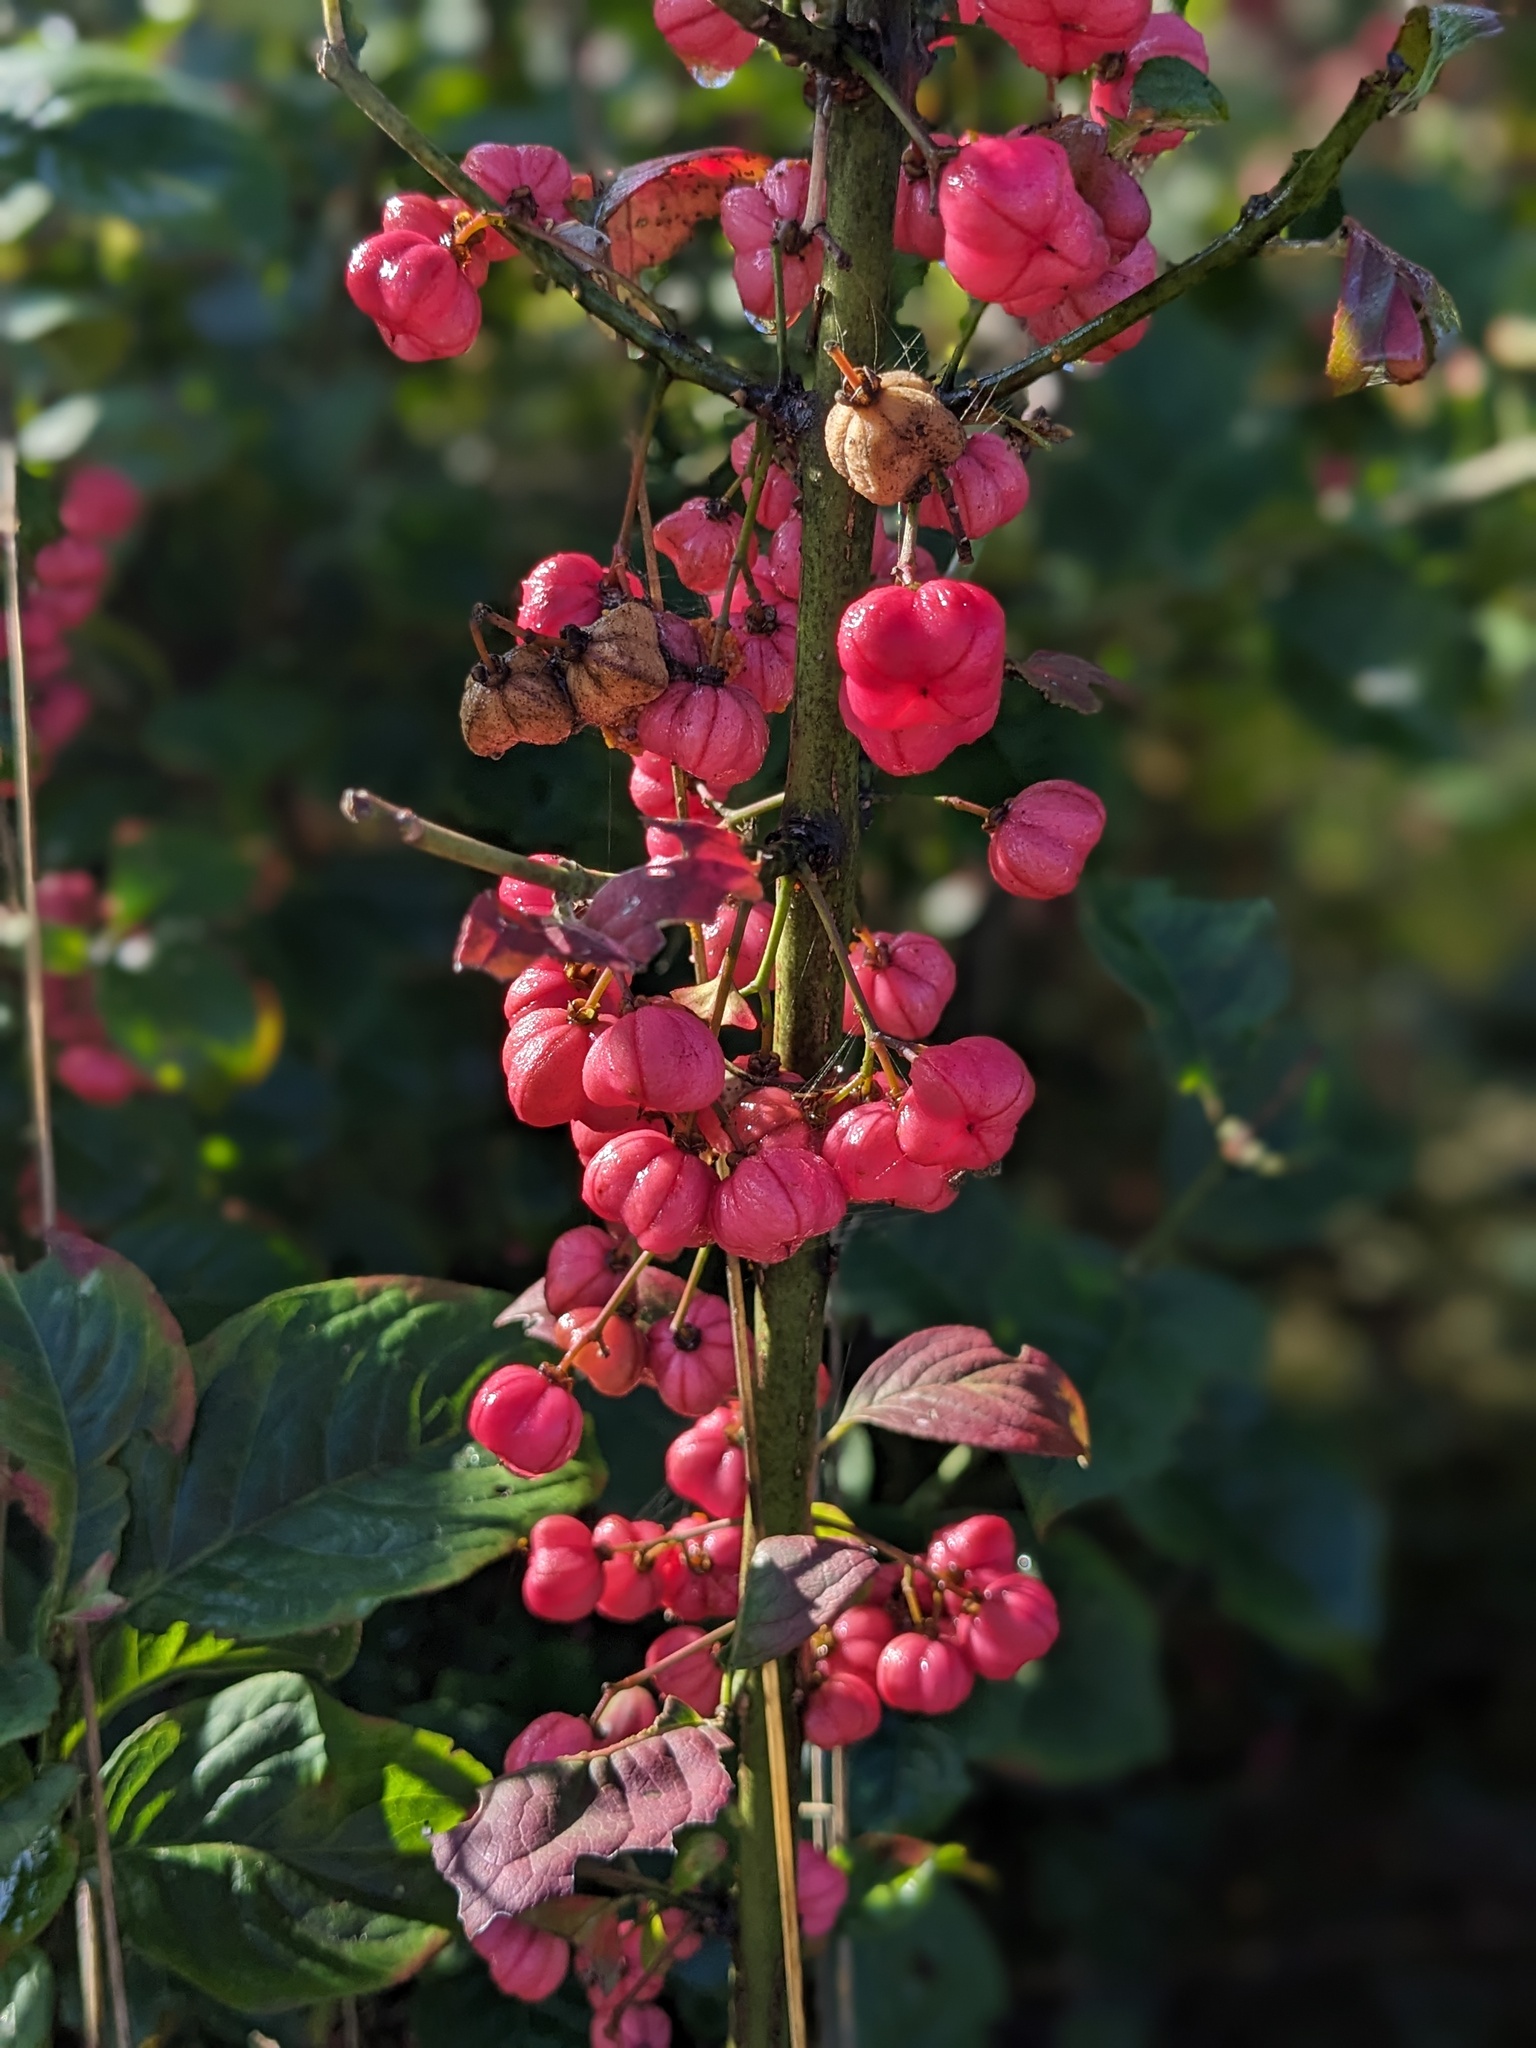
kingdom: Plantae
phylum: Tracheophyta
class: Magnoliopsida
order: Celastrales
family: Celastraceae
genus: Euonymus
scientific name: Euonymus europaeus
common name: Spindle
